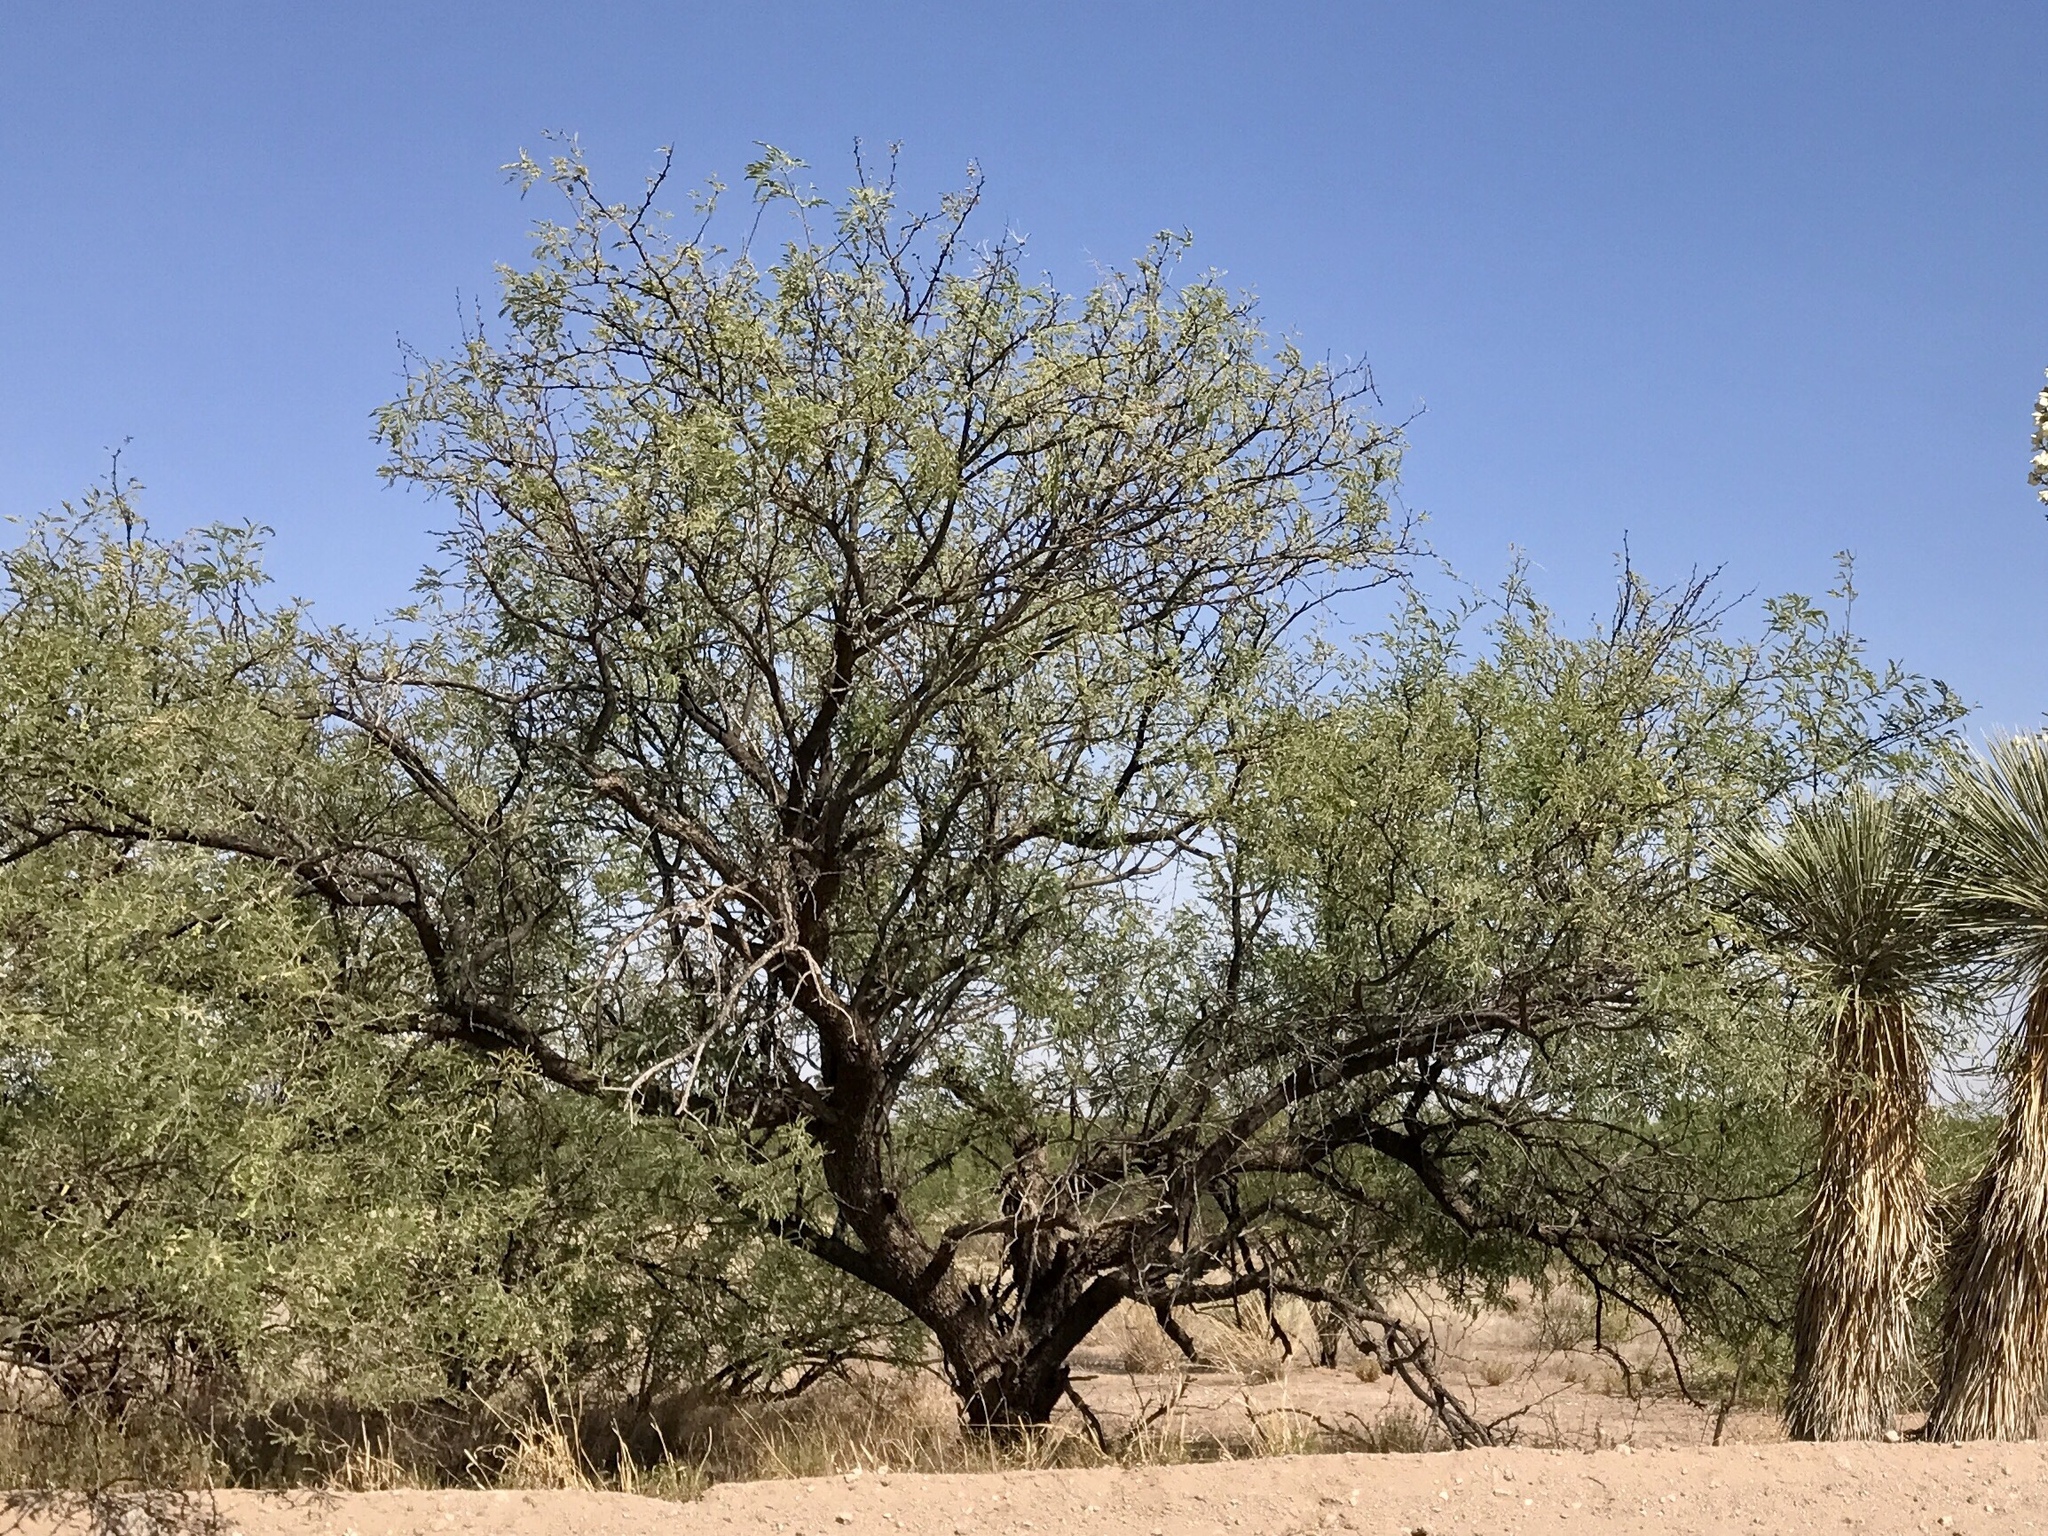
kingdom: Plantae
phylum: Tracheophyta
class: Magnoliopsida
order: Fabales
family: Fabaceae
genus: Prosopis
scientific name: Prosopis velutina
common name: Velvet mesquite
